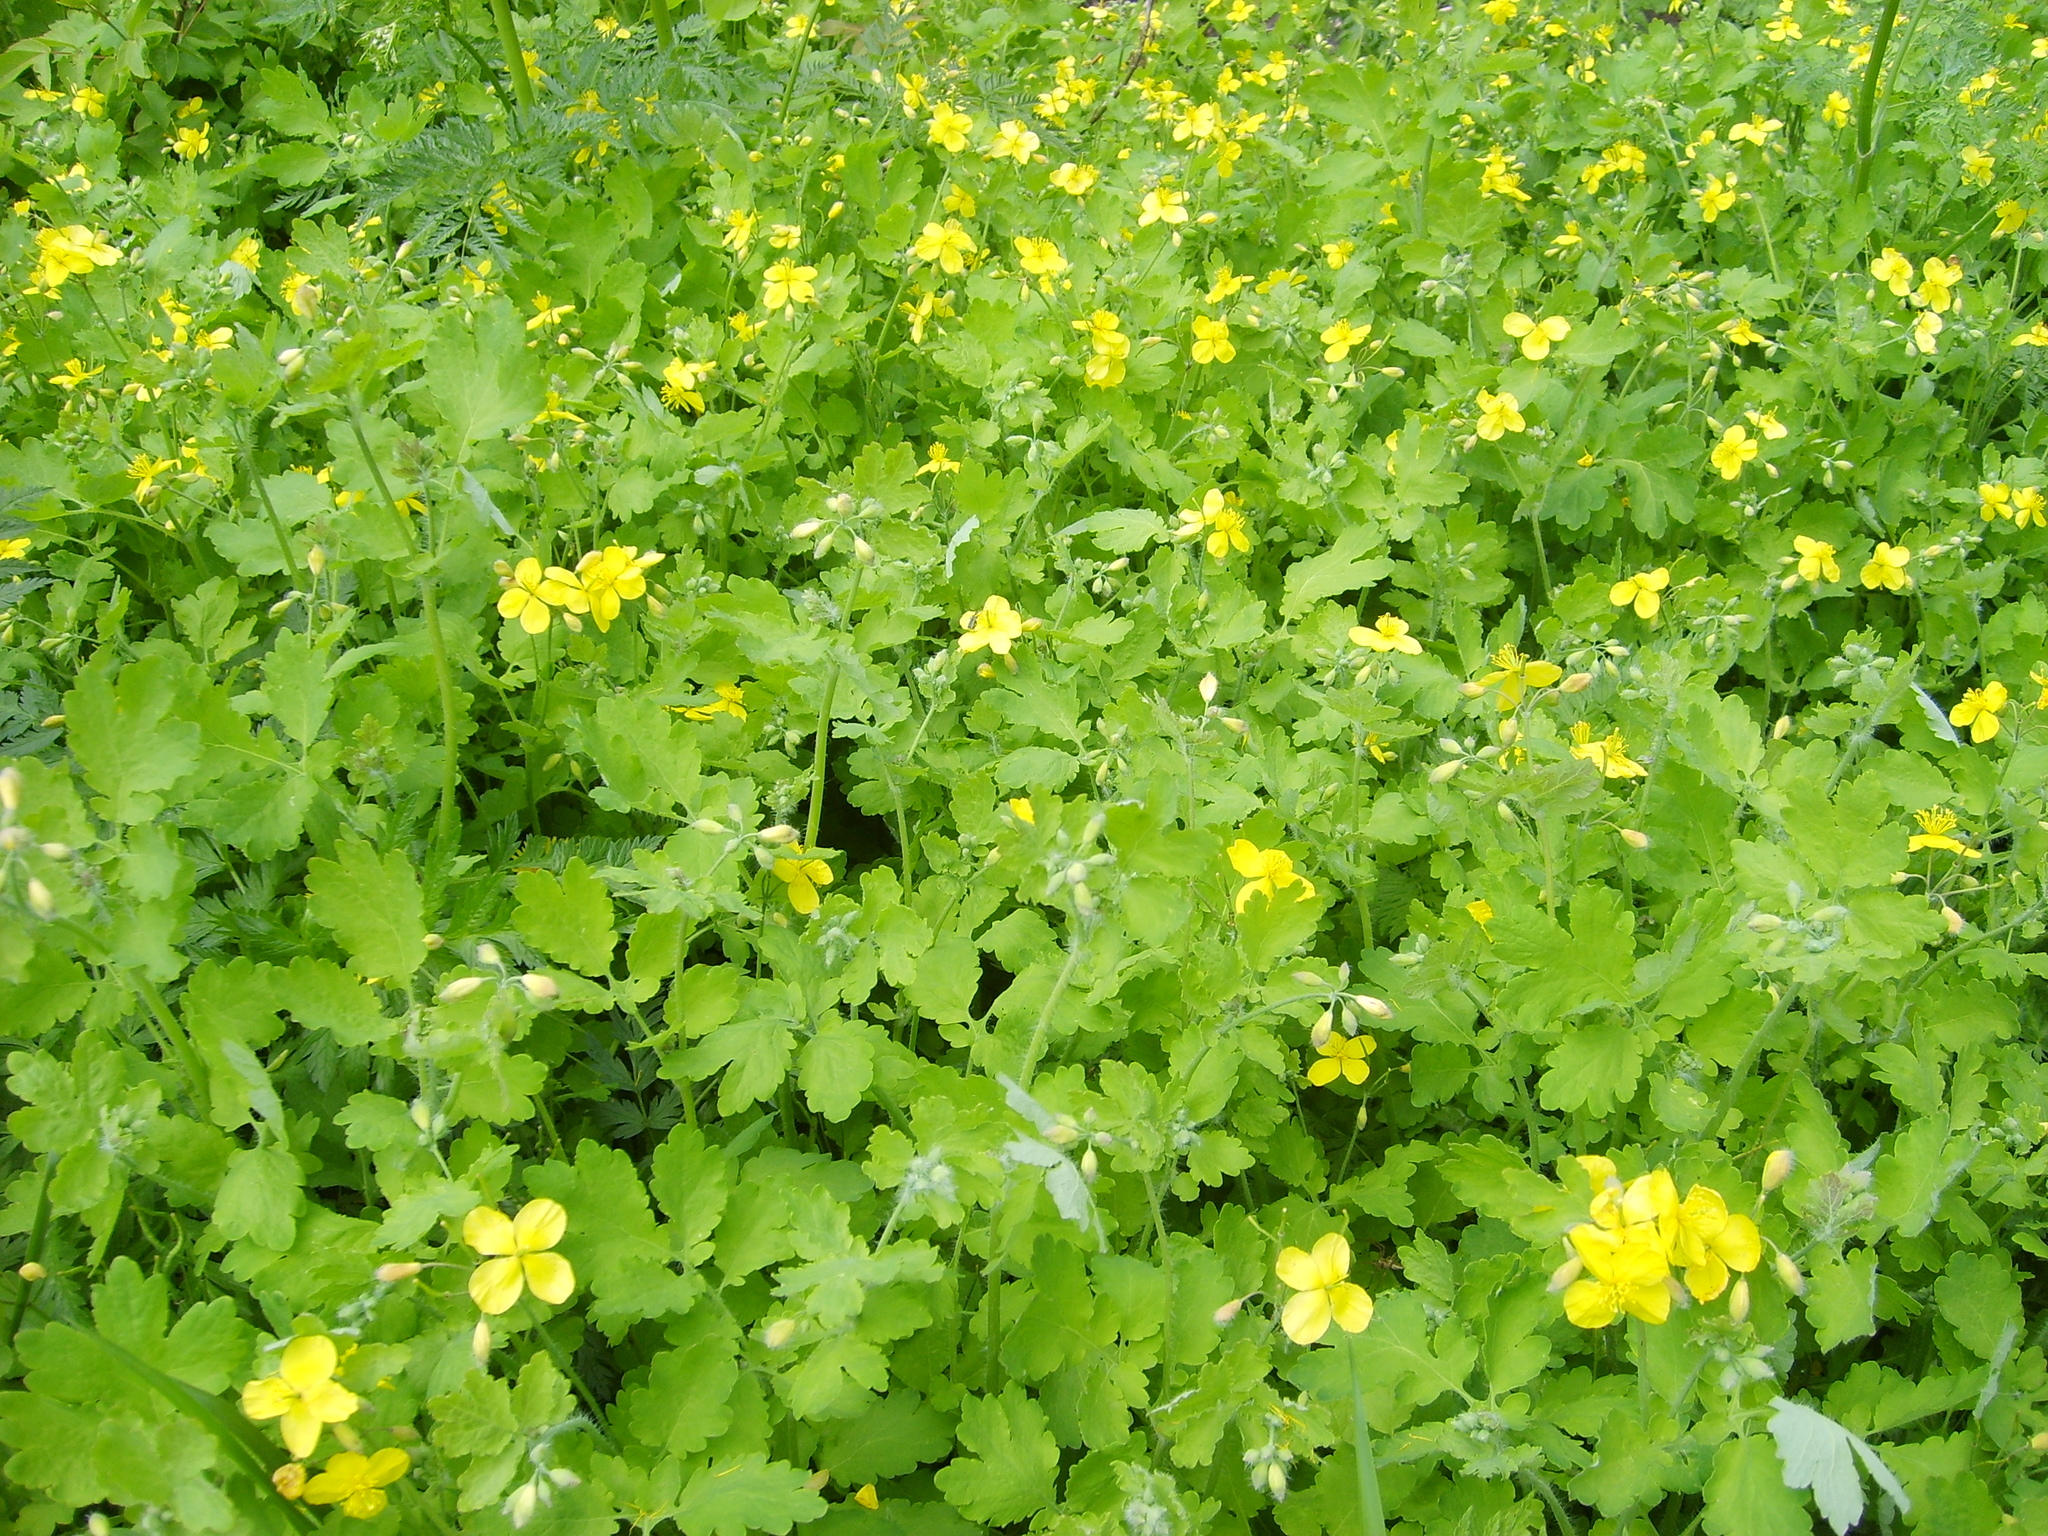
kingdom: Plantae
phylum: Tracheophyta
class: Magnoliopsida
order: Ranunculales
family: Papaveraceae
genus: Chelidonium
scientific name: Chelidonium majus
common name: Greater celandine
